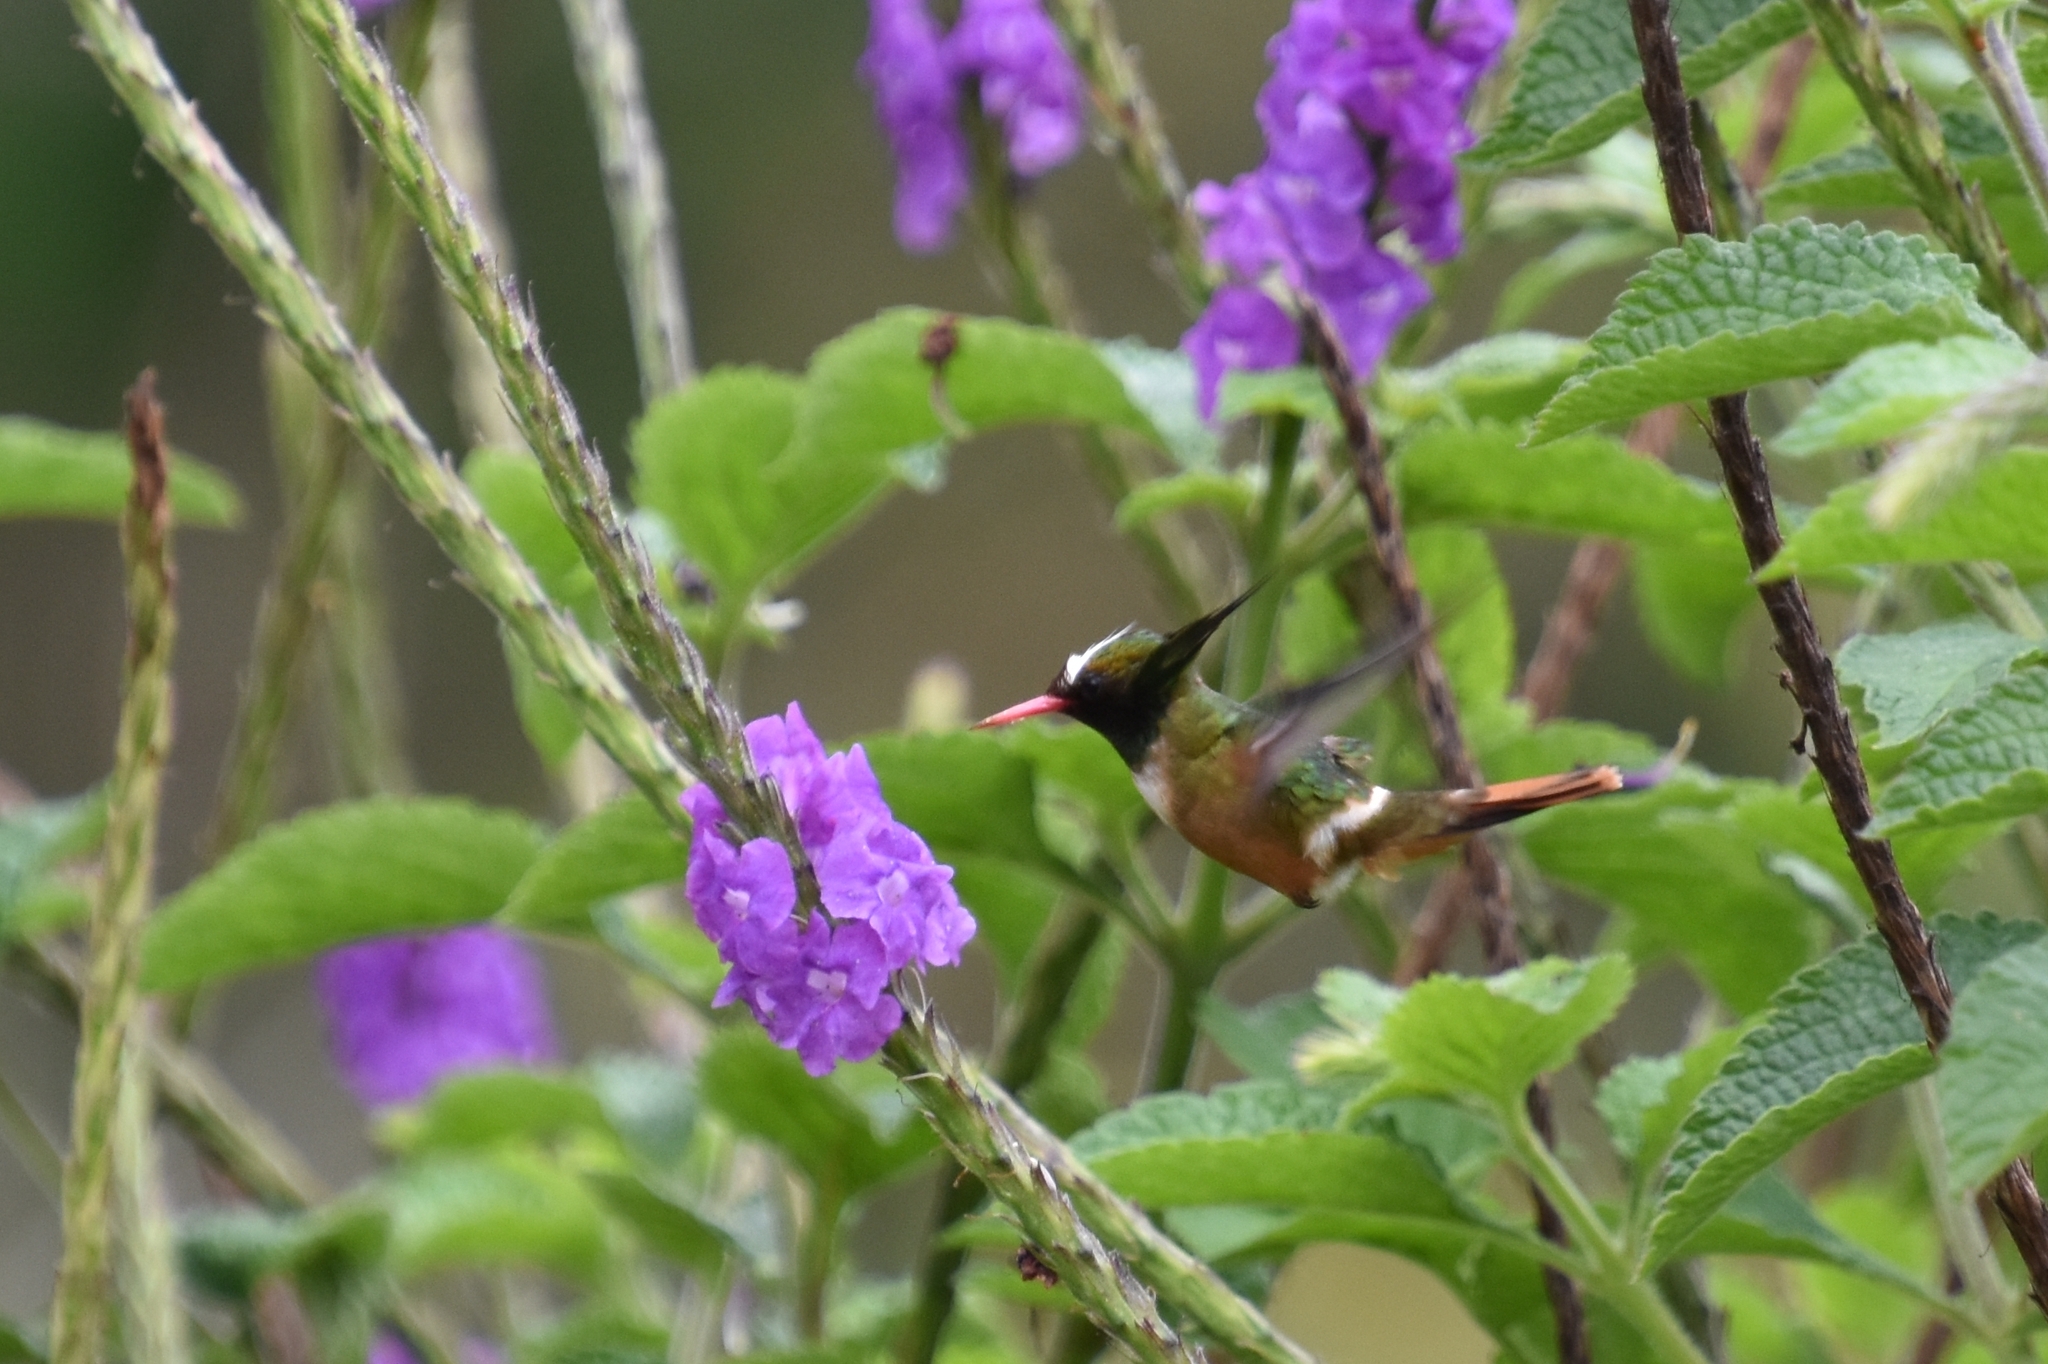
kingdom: Animalia
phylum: Chordata
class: Aves
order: Apodiformes
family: Trochilidae
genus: Lophornis
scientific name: Lophornis adorabilis
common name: White-crested coquette
